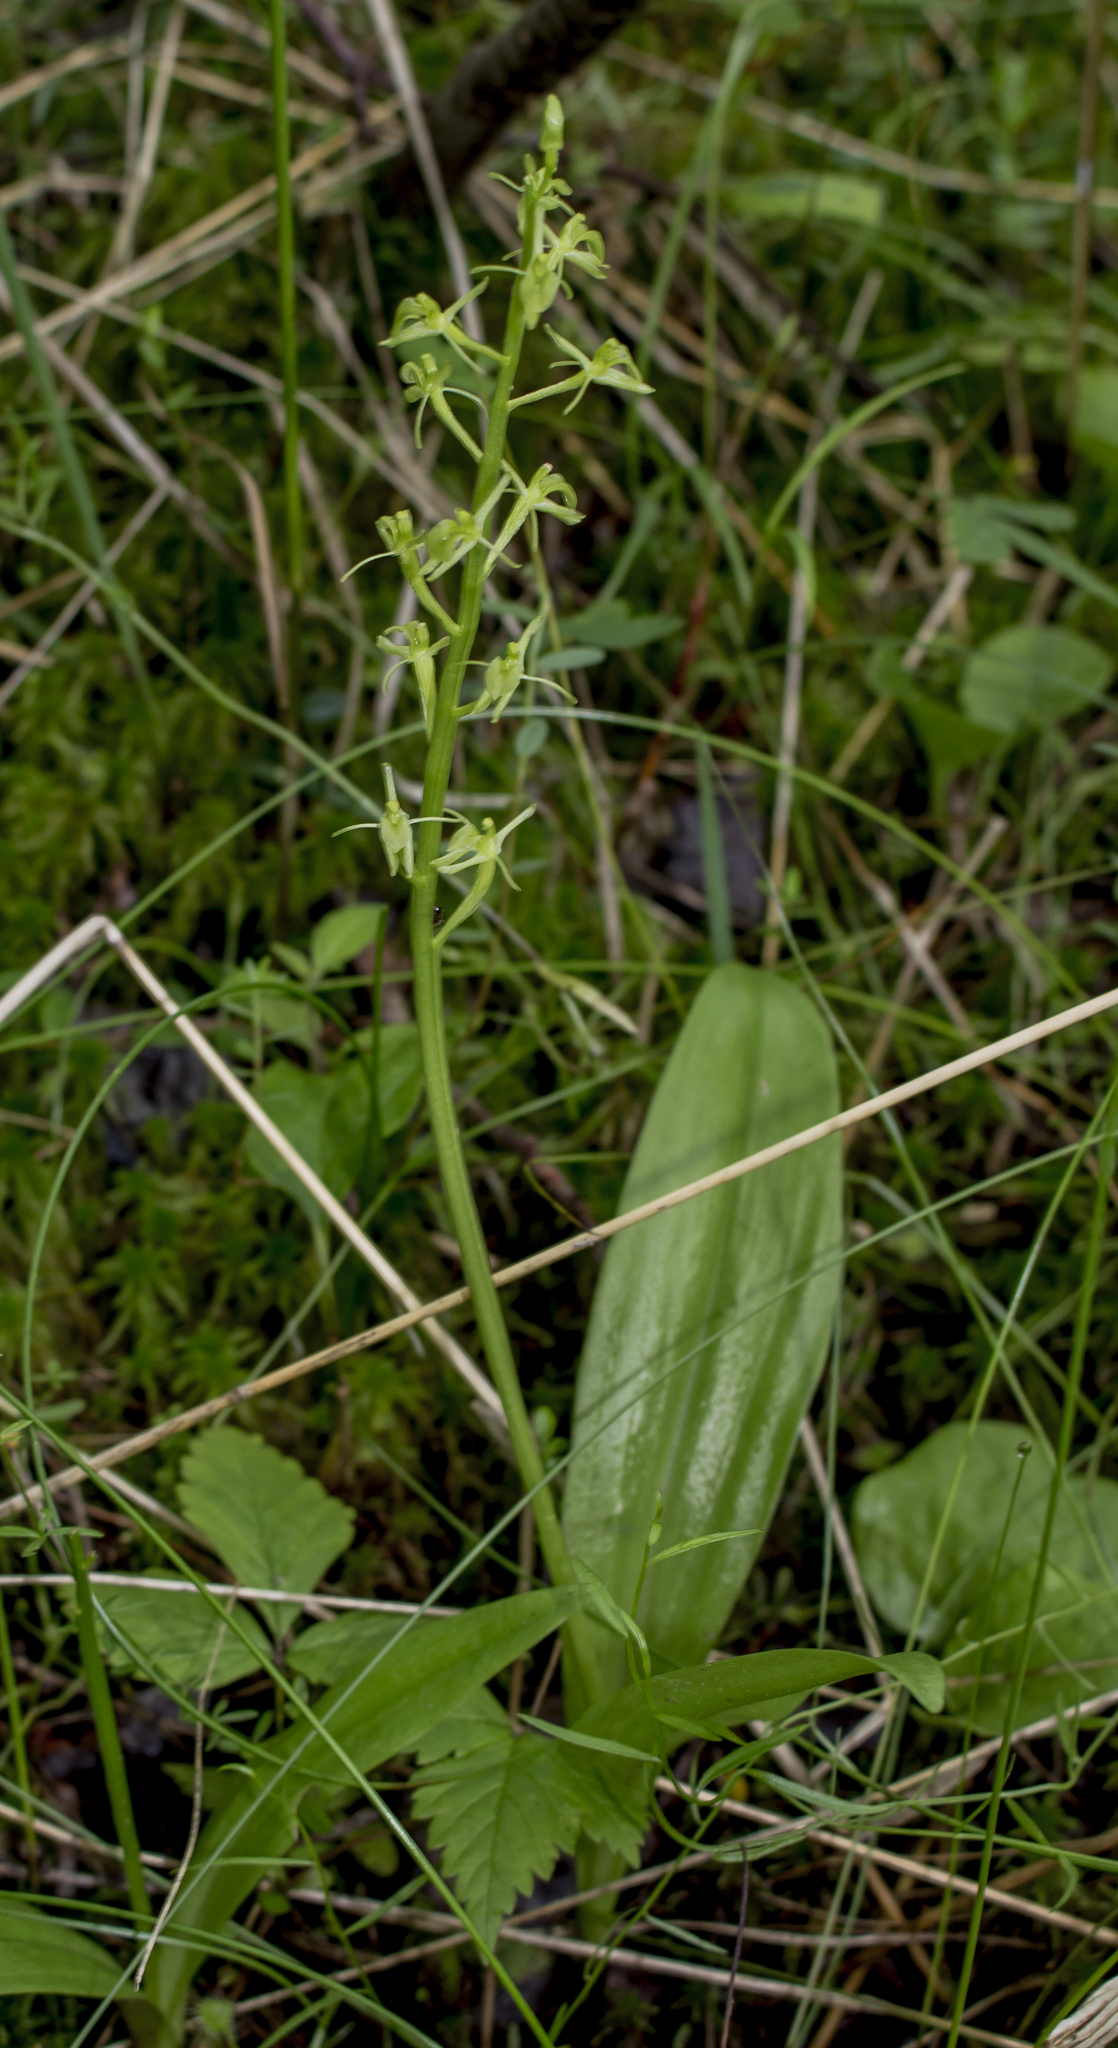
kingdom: Animalia
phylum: Arthropoda
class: Insecta
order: Coleoptera
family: Curculionidae
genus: Liparis
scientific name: Liparis loeselii
